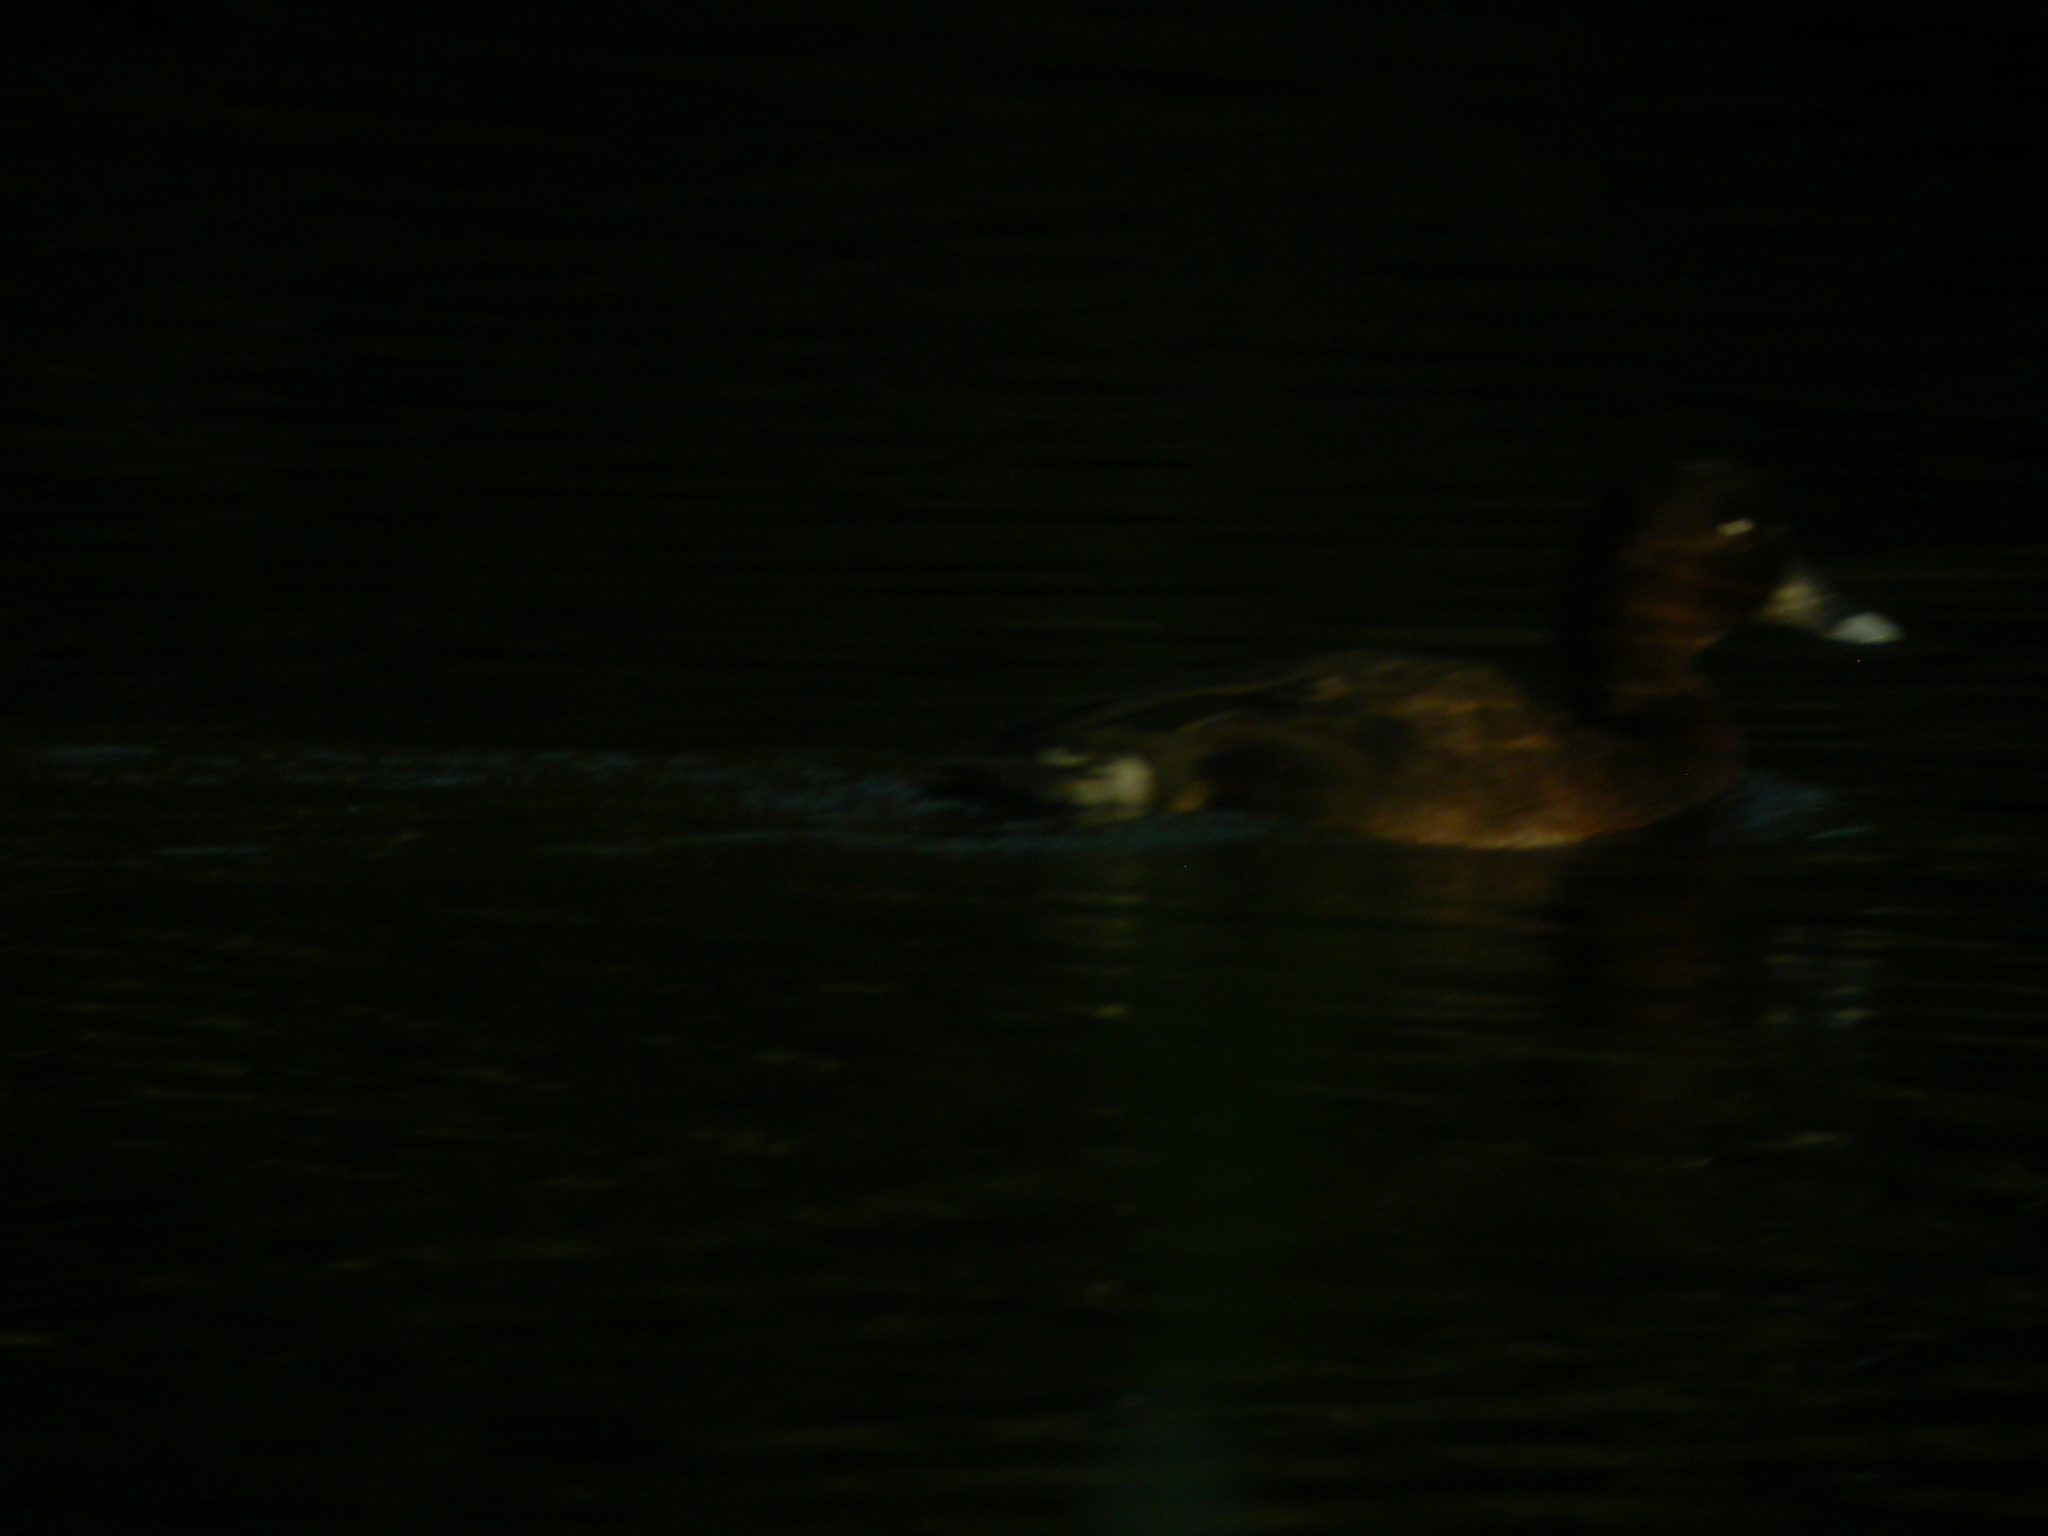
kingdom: Animalia
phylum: Chordata
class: Aves
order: Anseriformes
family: Anatidae
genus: Aythya
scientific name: Aythya australis
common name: Hardhead
